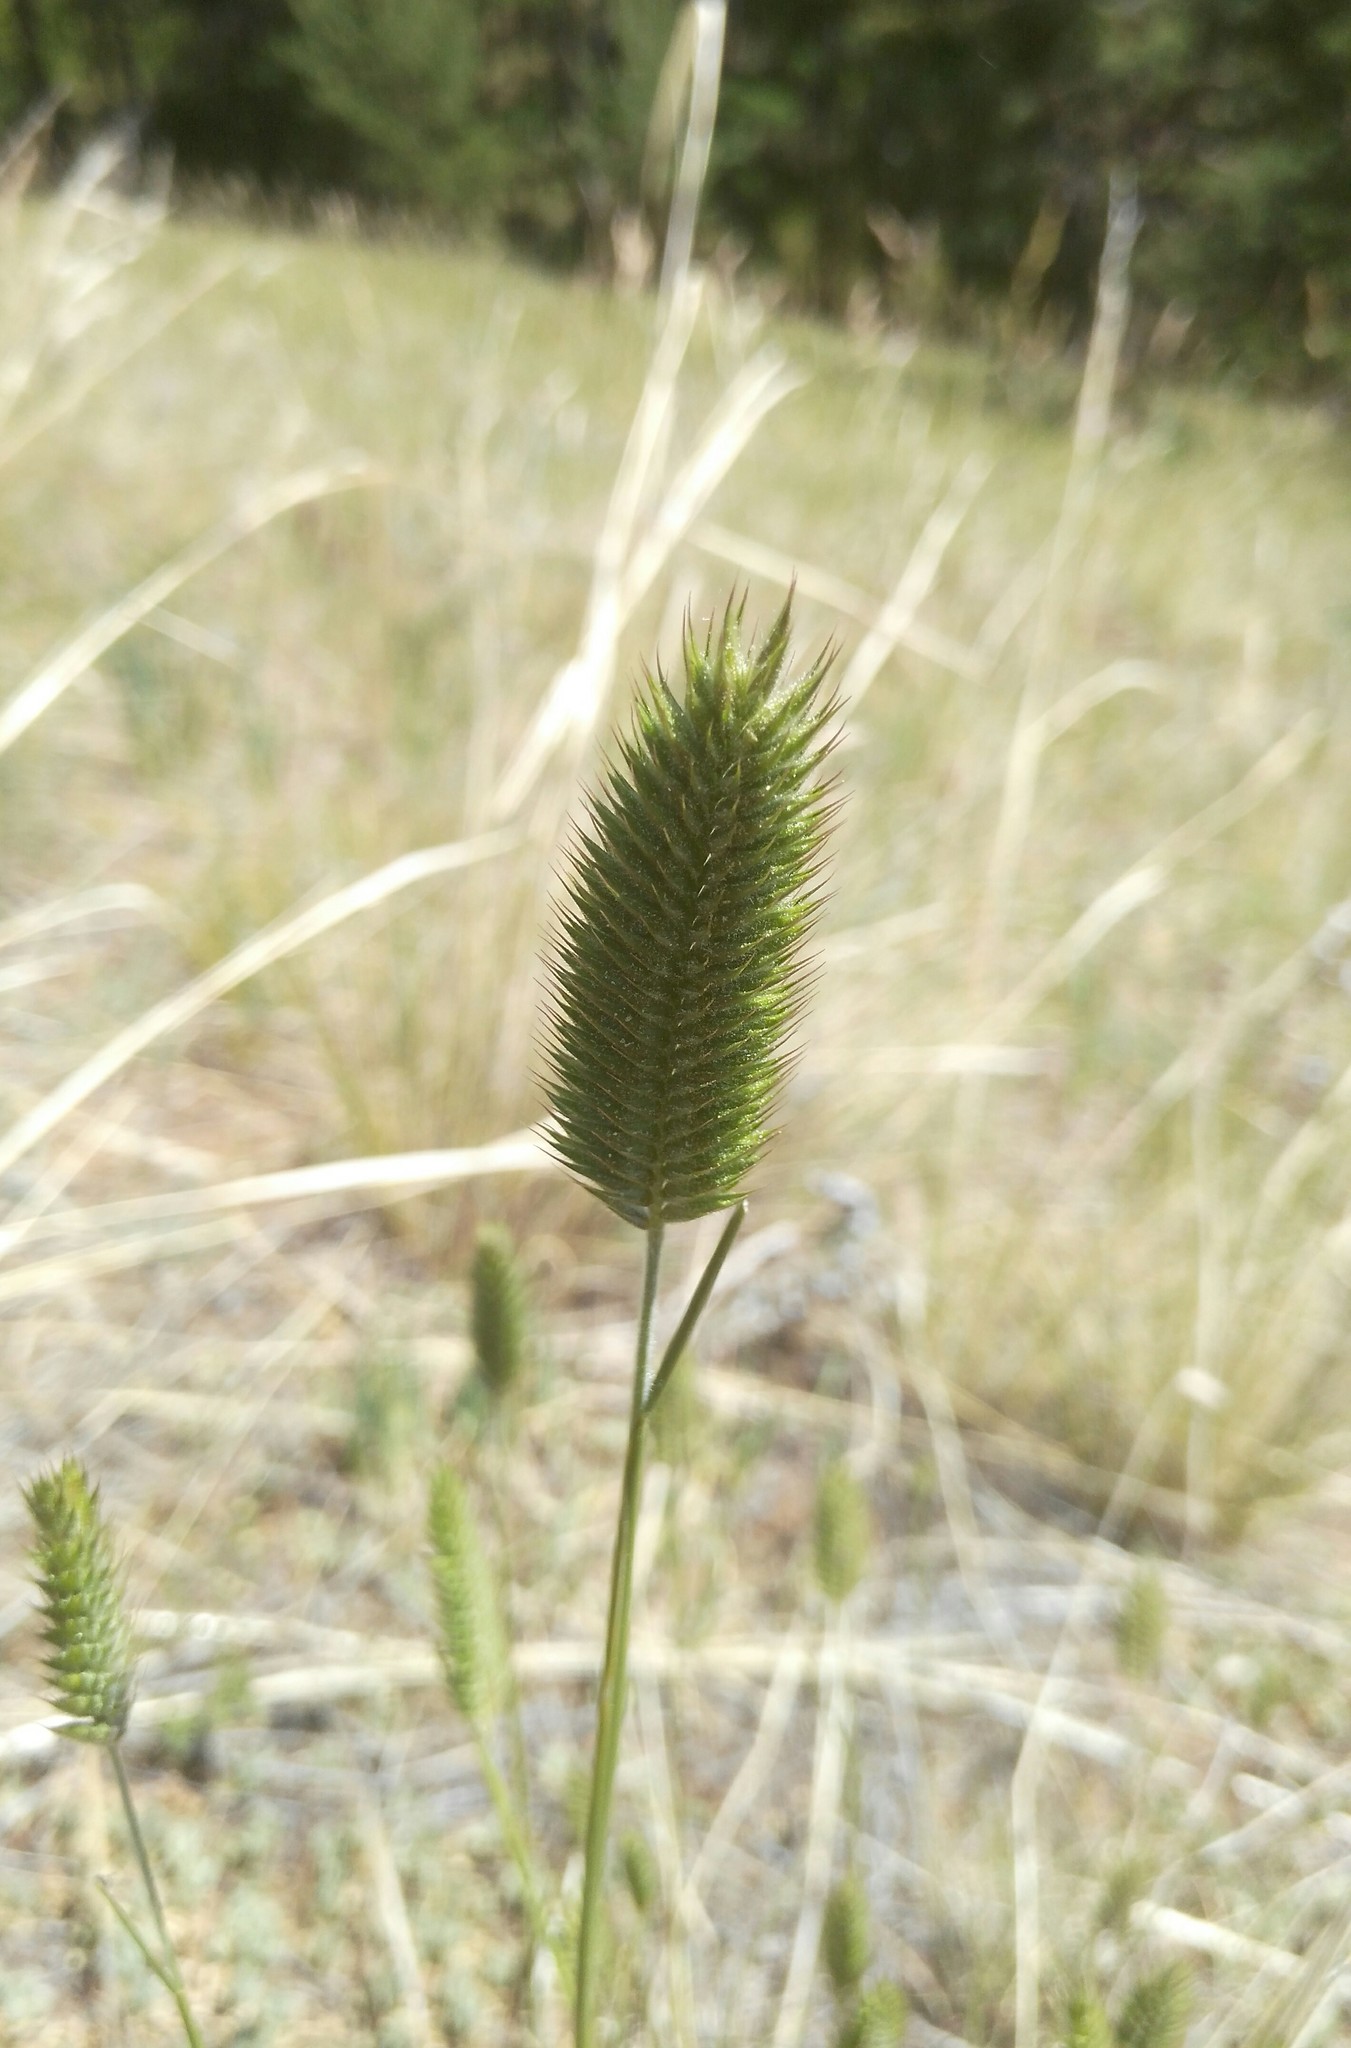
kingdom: Plantae
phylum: Tracheophyta
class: Liliopsida
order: Poales
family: Poaceae
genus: Agropyron
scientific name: Agropyron cristatum
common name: Crested wheatgrass
